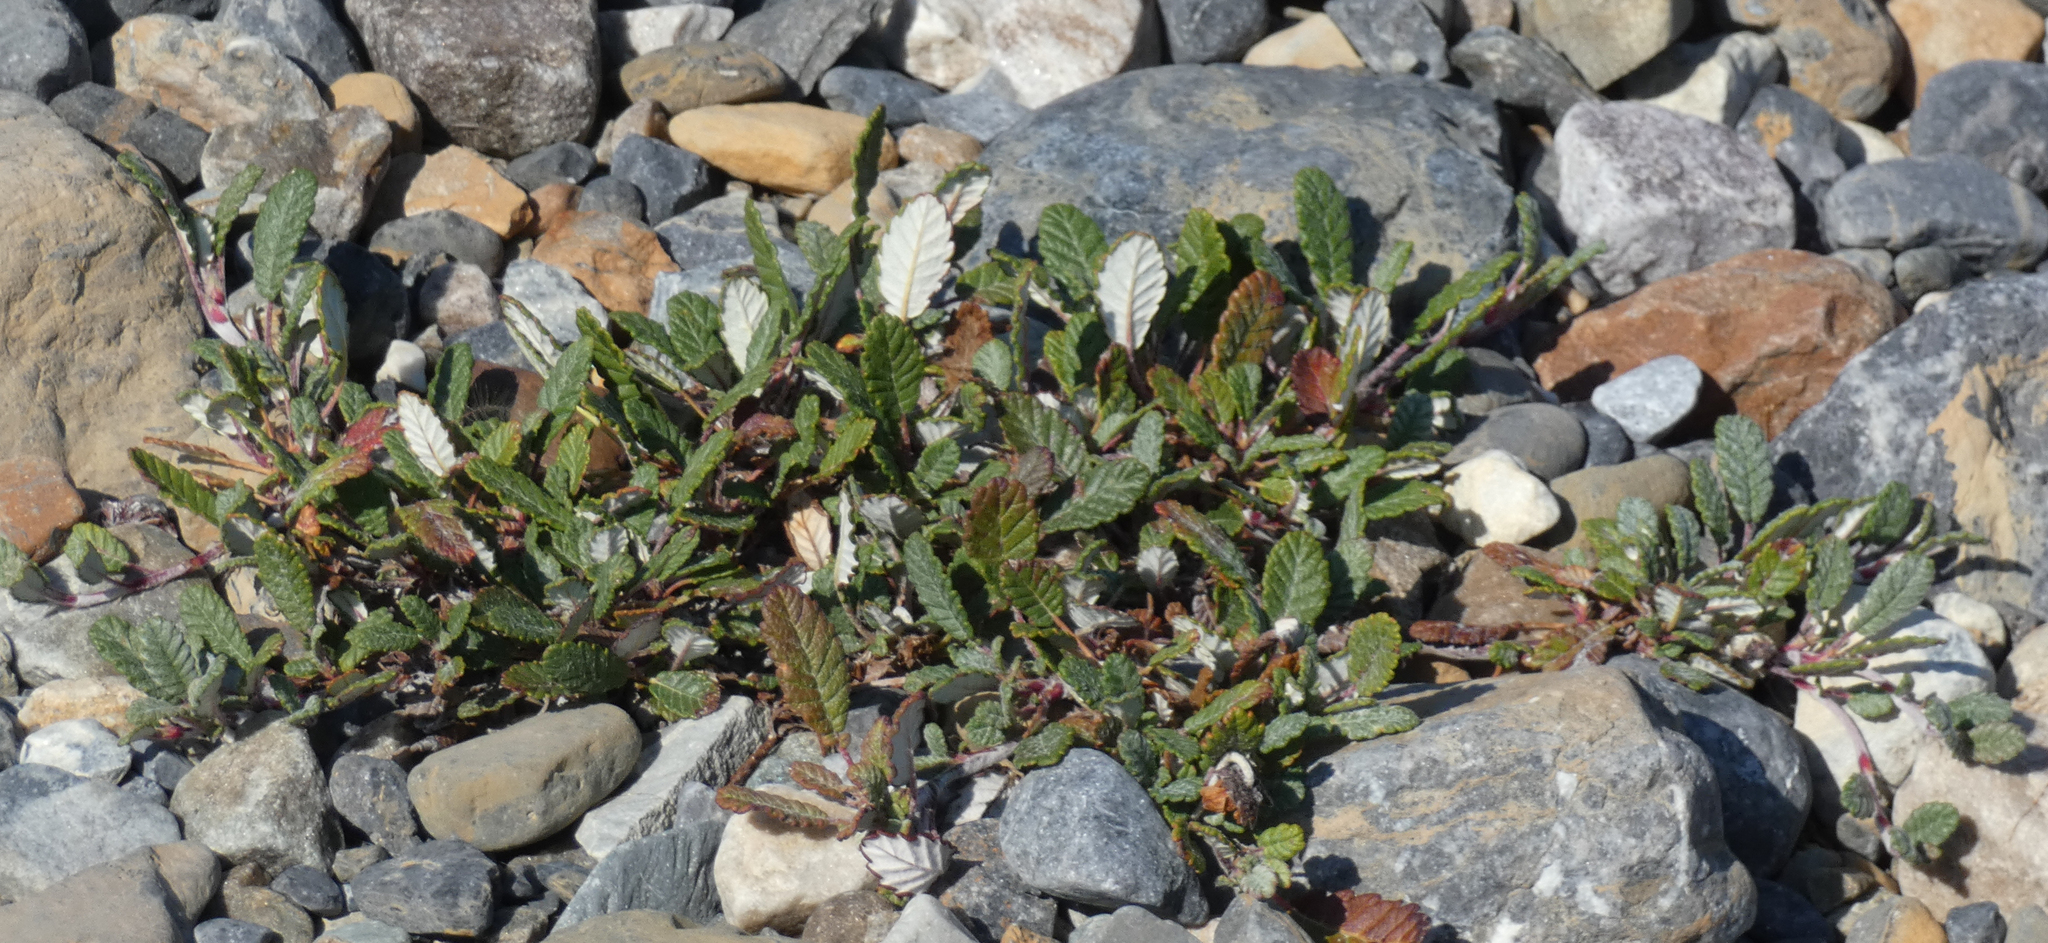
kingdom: Plantae
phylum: Tracheophyta
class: Magnoliopsida
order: Rosales
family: Rosaceae
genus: Dryas
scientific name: Dryas drummondii
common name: Drummond's dryad
